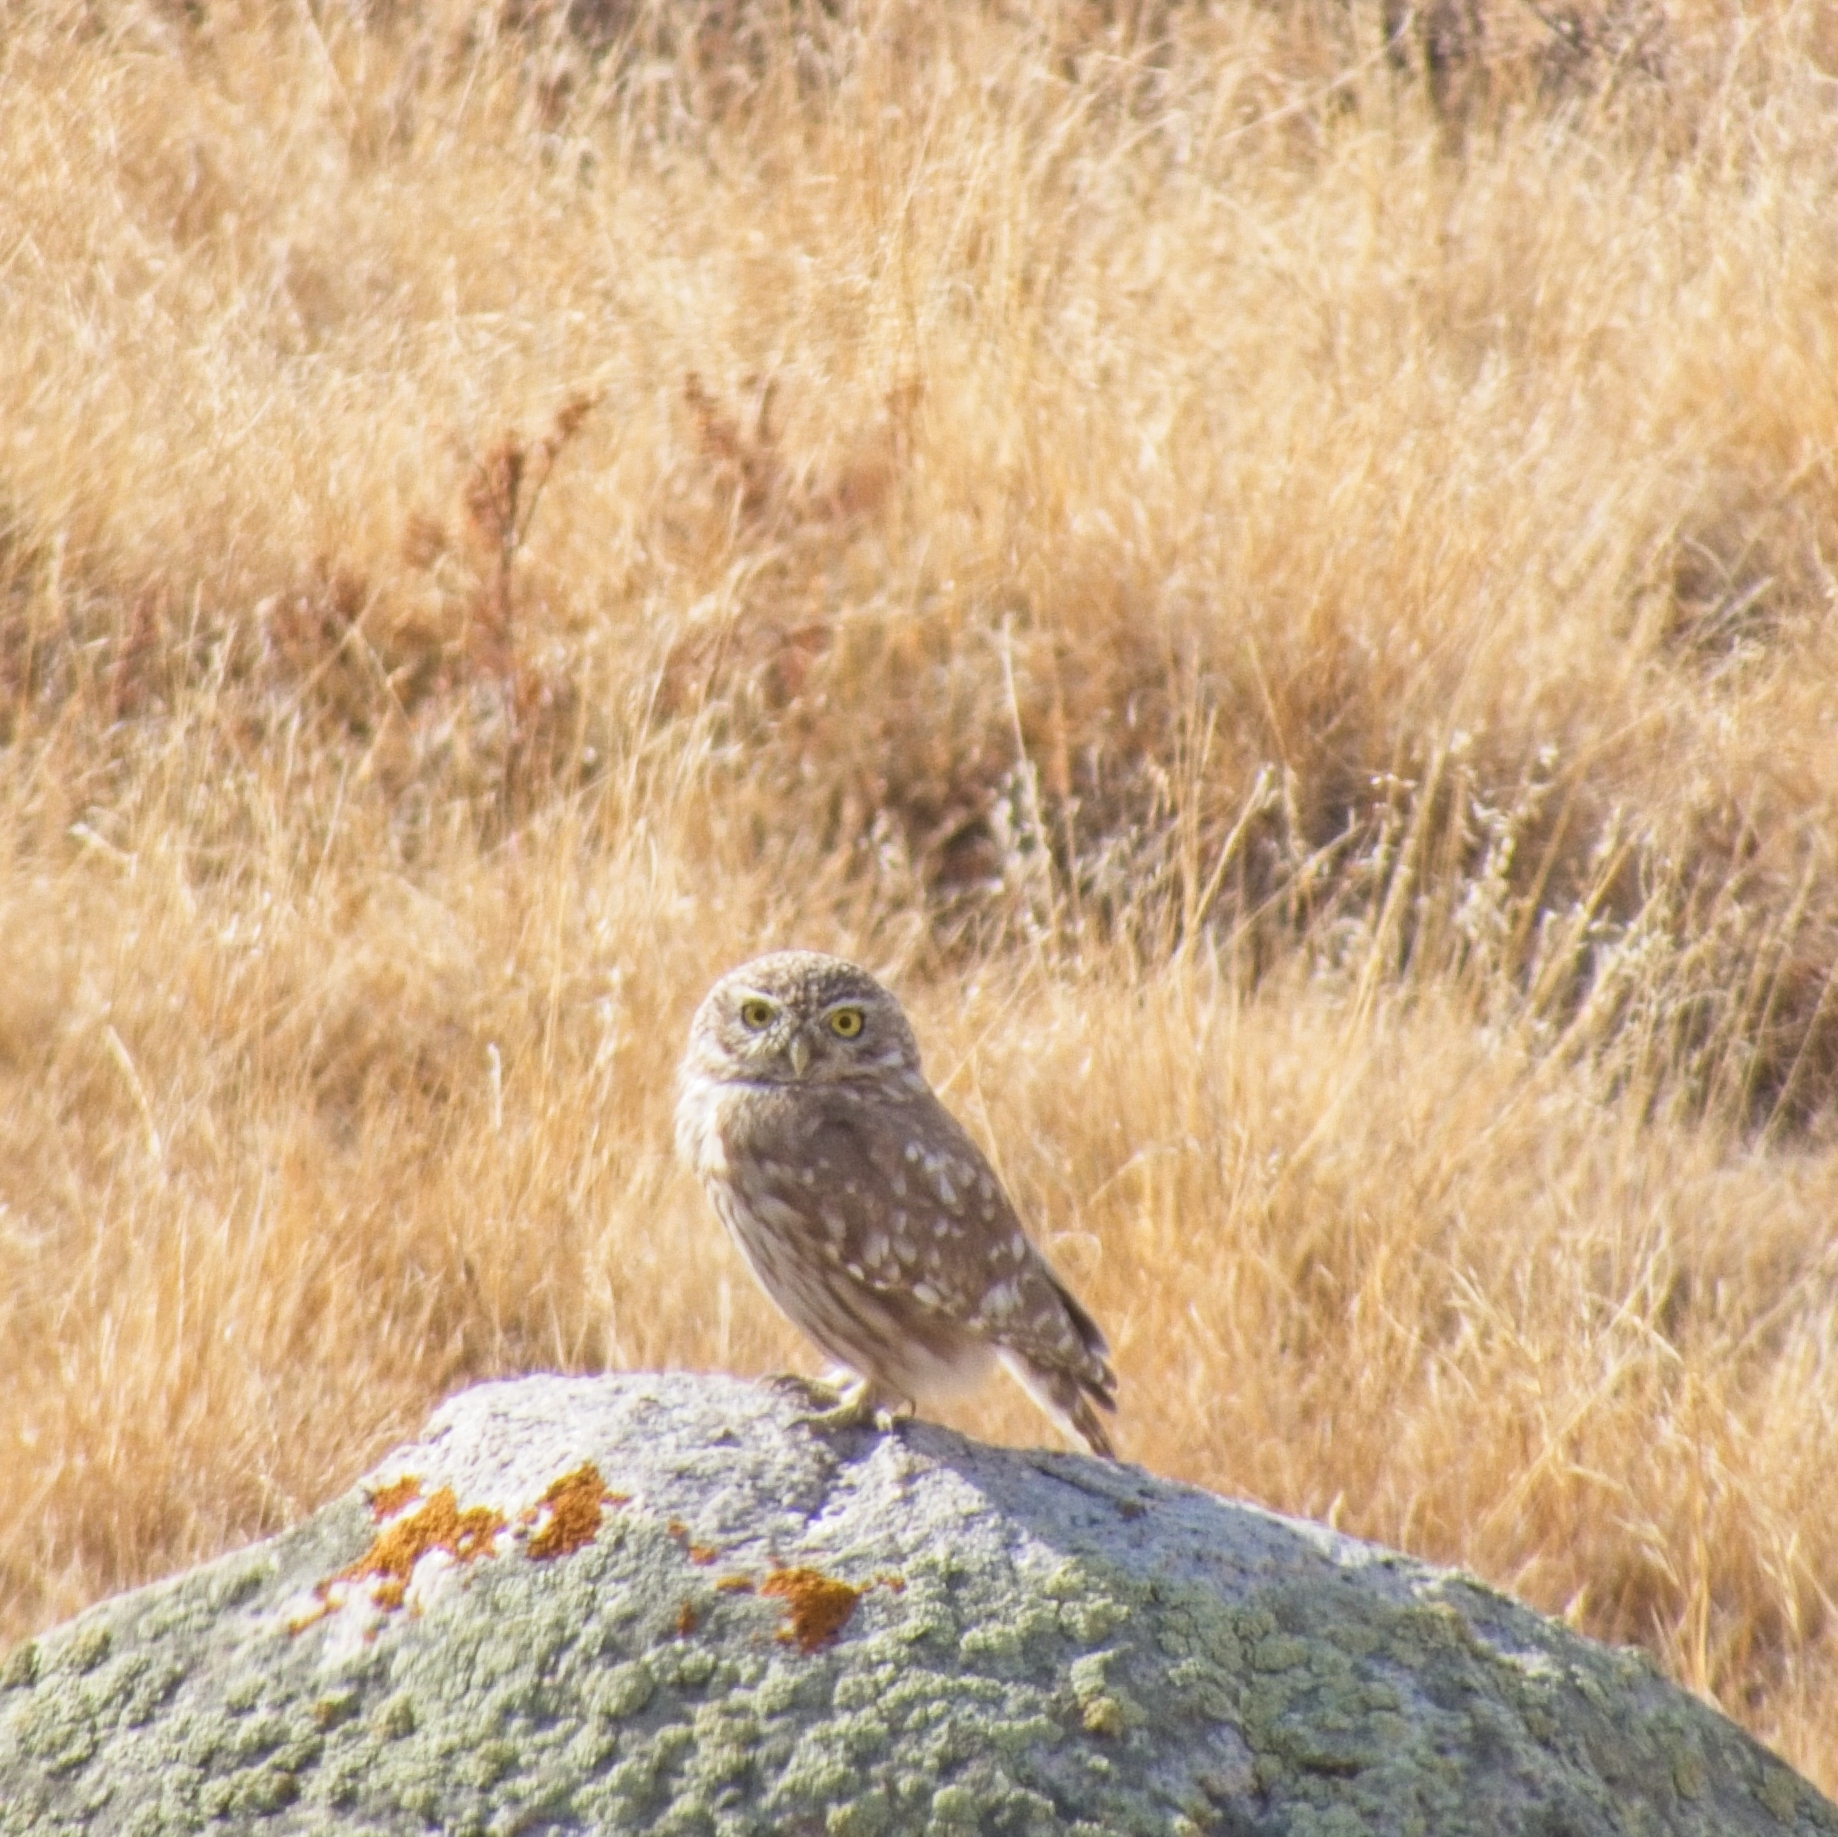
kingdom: Animalia
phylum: Chordata
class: Aves
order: Strigiformes
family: Strigidae
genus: Athene
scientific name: Athene noctua
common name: Little owl
